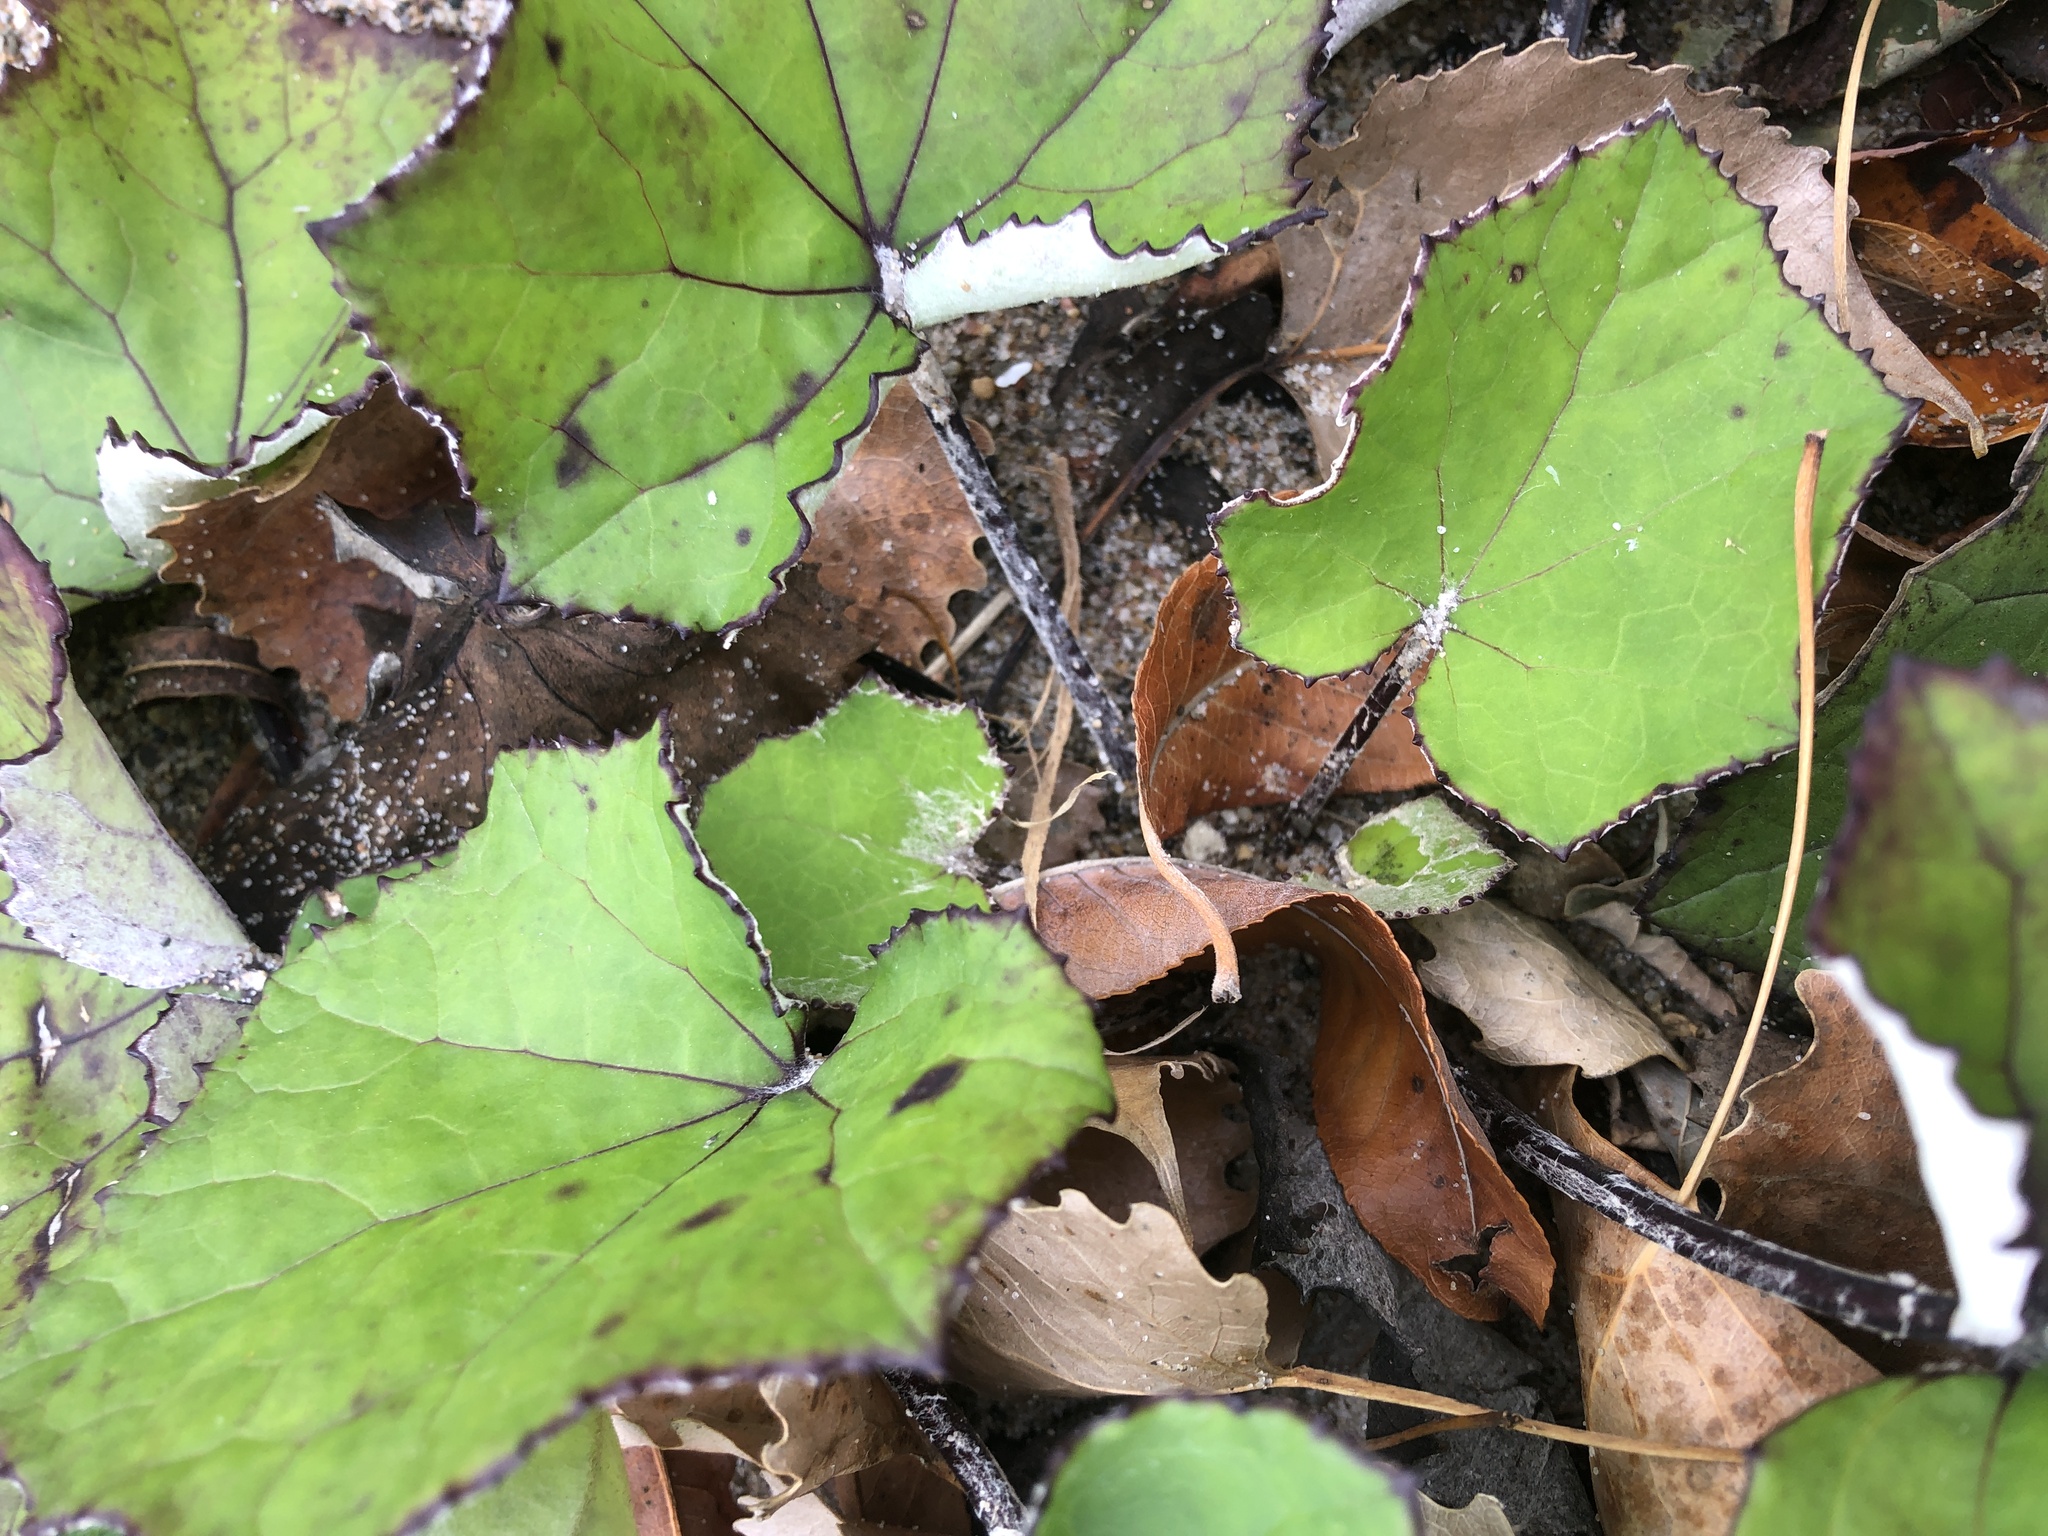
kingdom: Plantae
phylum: Tracheophyta
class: Magnoliopsida
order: Asterales
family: Asteraceae
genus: Tussilago
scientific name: Tussilago farfara
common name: Coltsfoot
